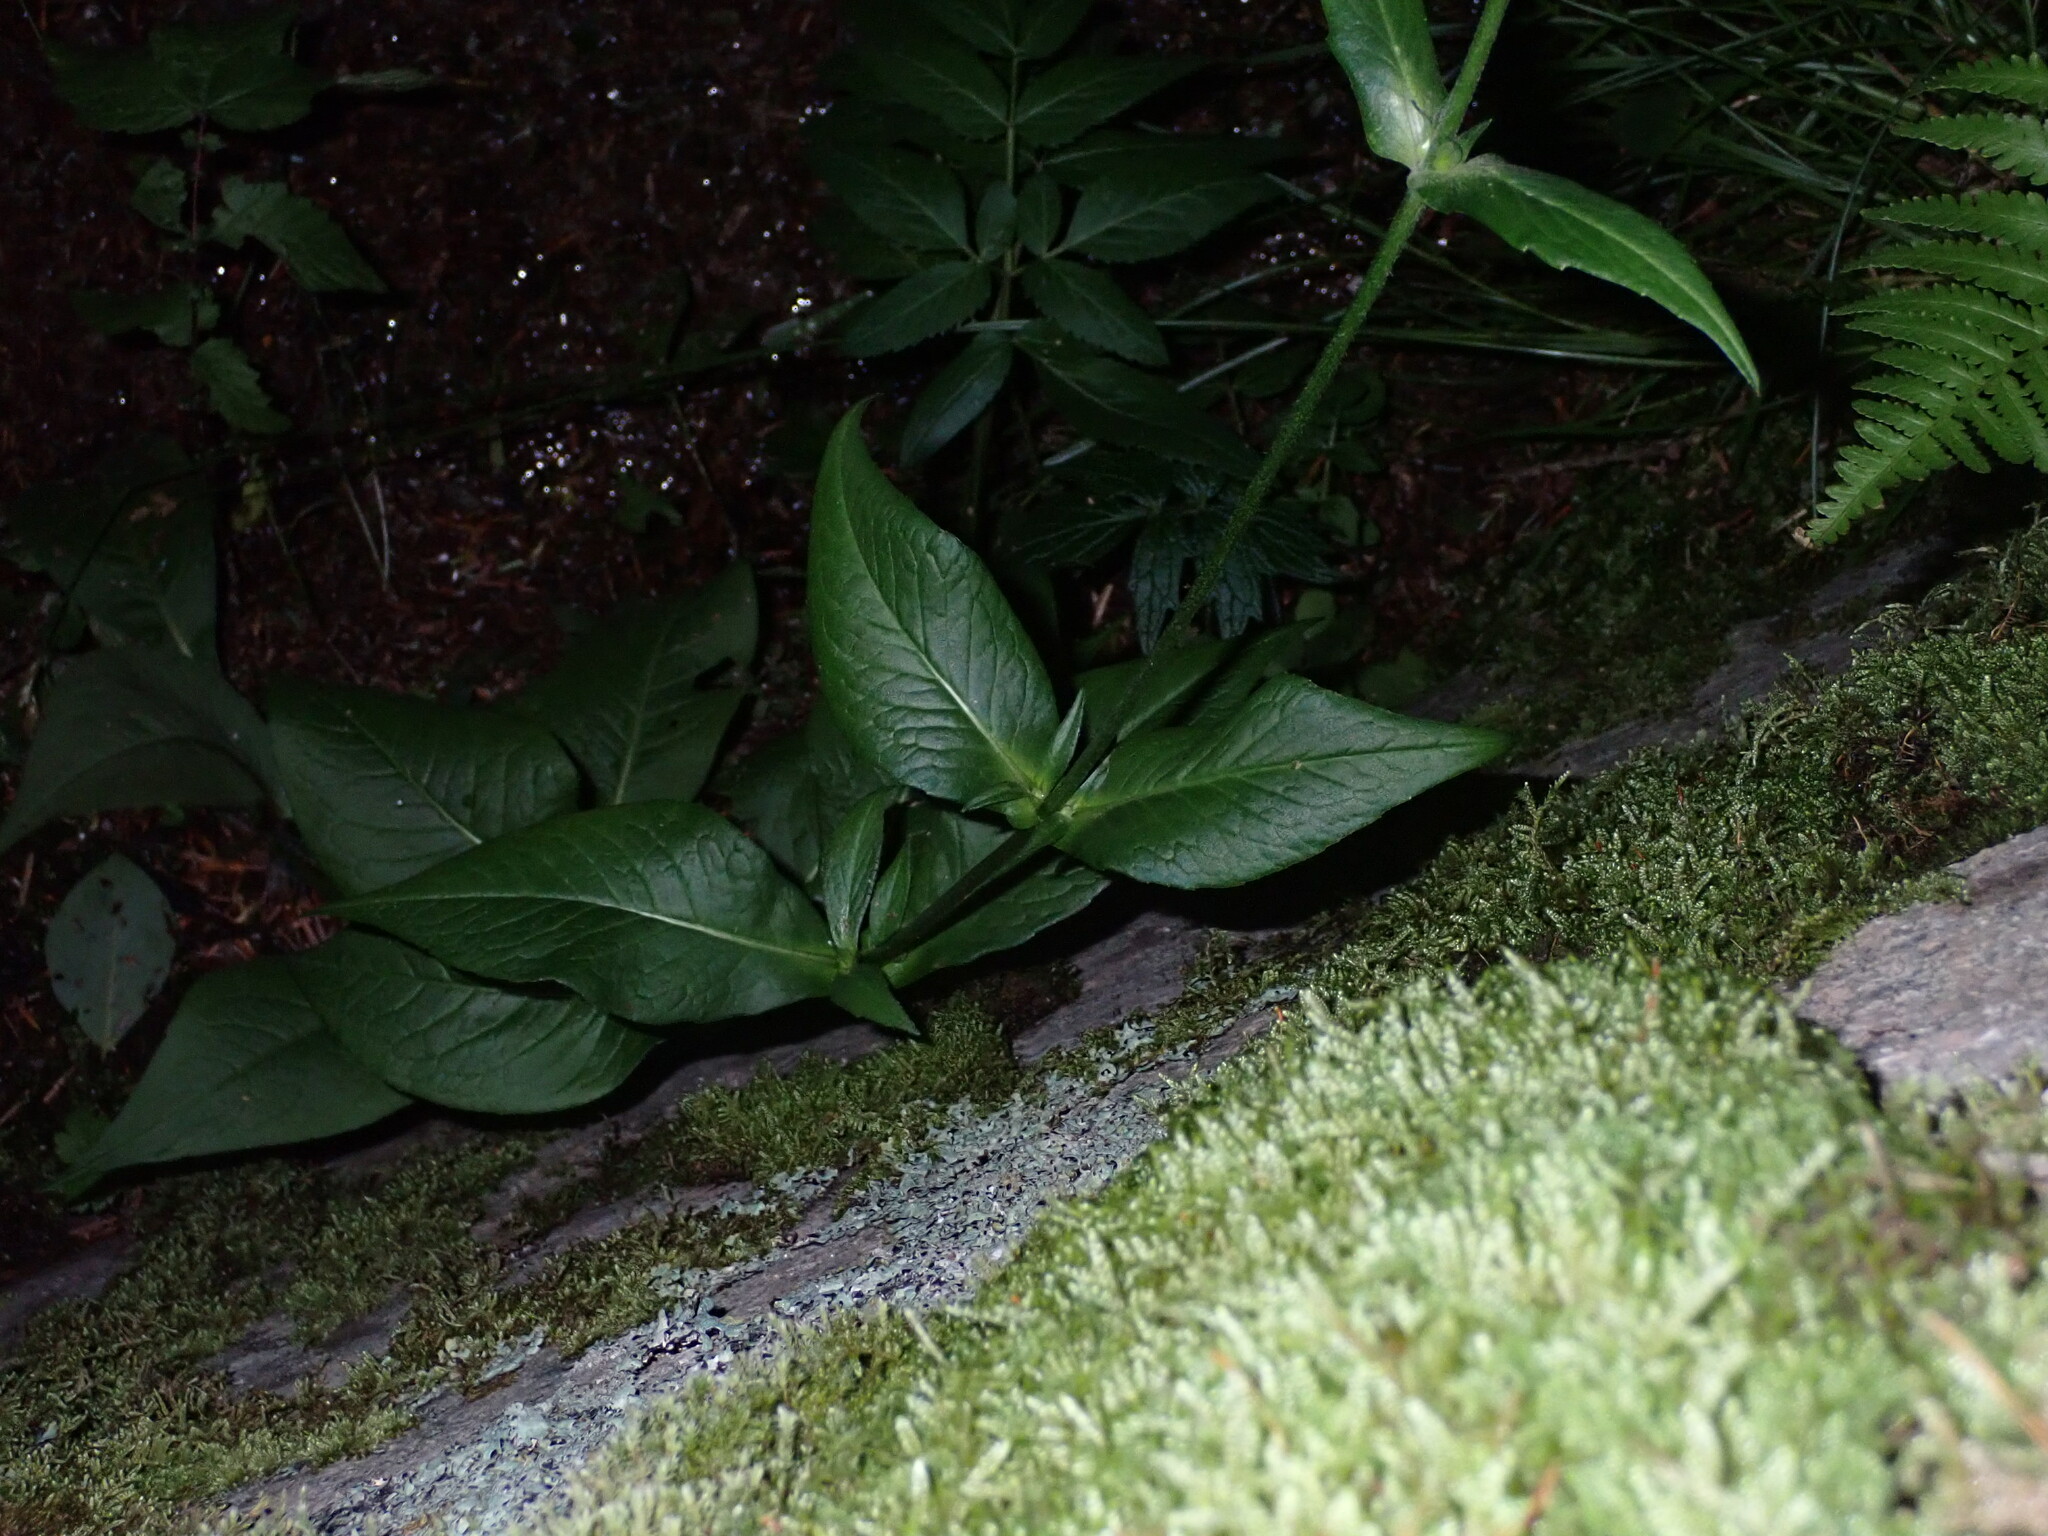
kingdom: Plantae
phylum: Tracheophyta
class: Magnoliopsida
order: Dipsacales
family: Caprifoliaceae
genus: Knautia
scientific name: Knautia dipsacifolia
